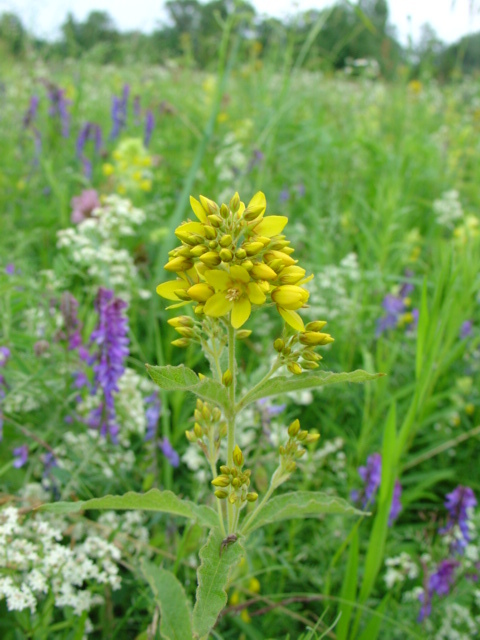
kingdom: Plantae
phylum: Tracheophyta
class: Magnoliopsida
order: Ericales
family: Primulaceae
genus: Lysimachia
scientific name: Lysimachia vulgaris
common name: Yellow loosestrife
